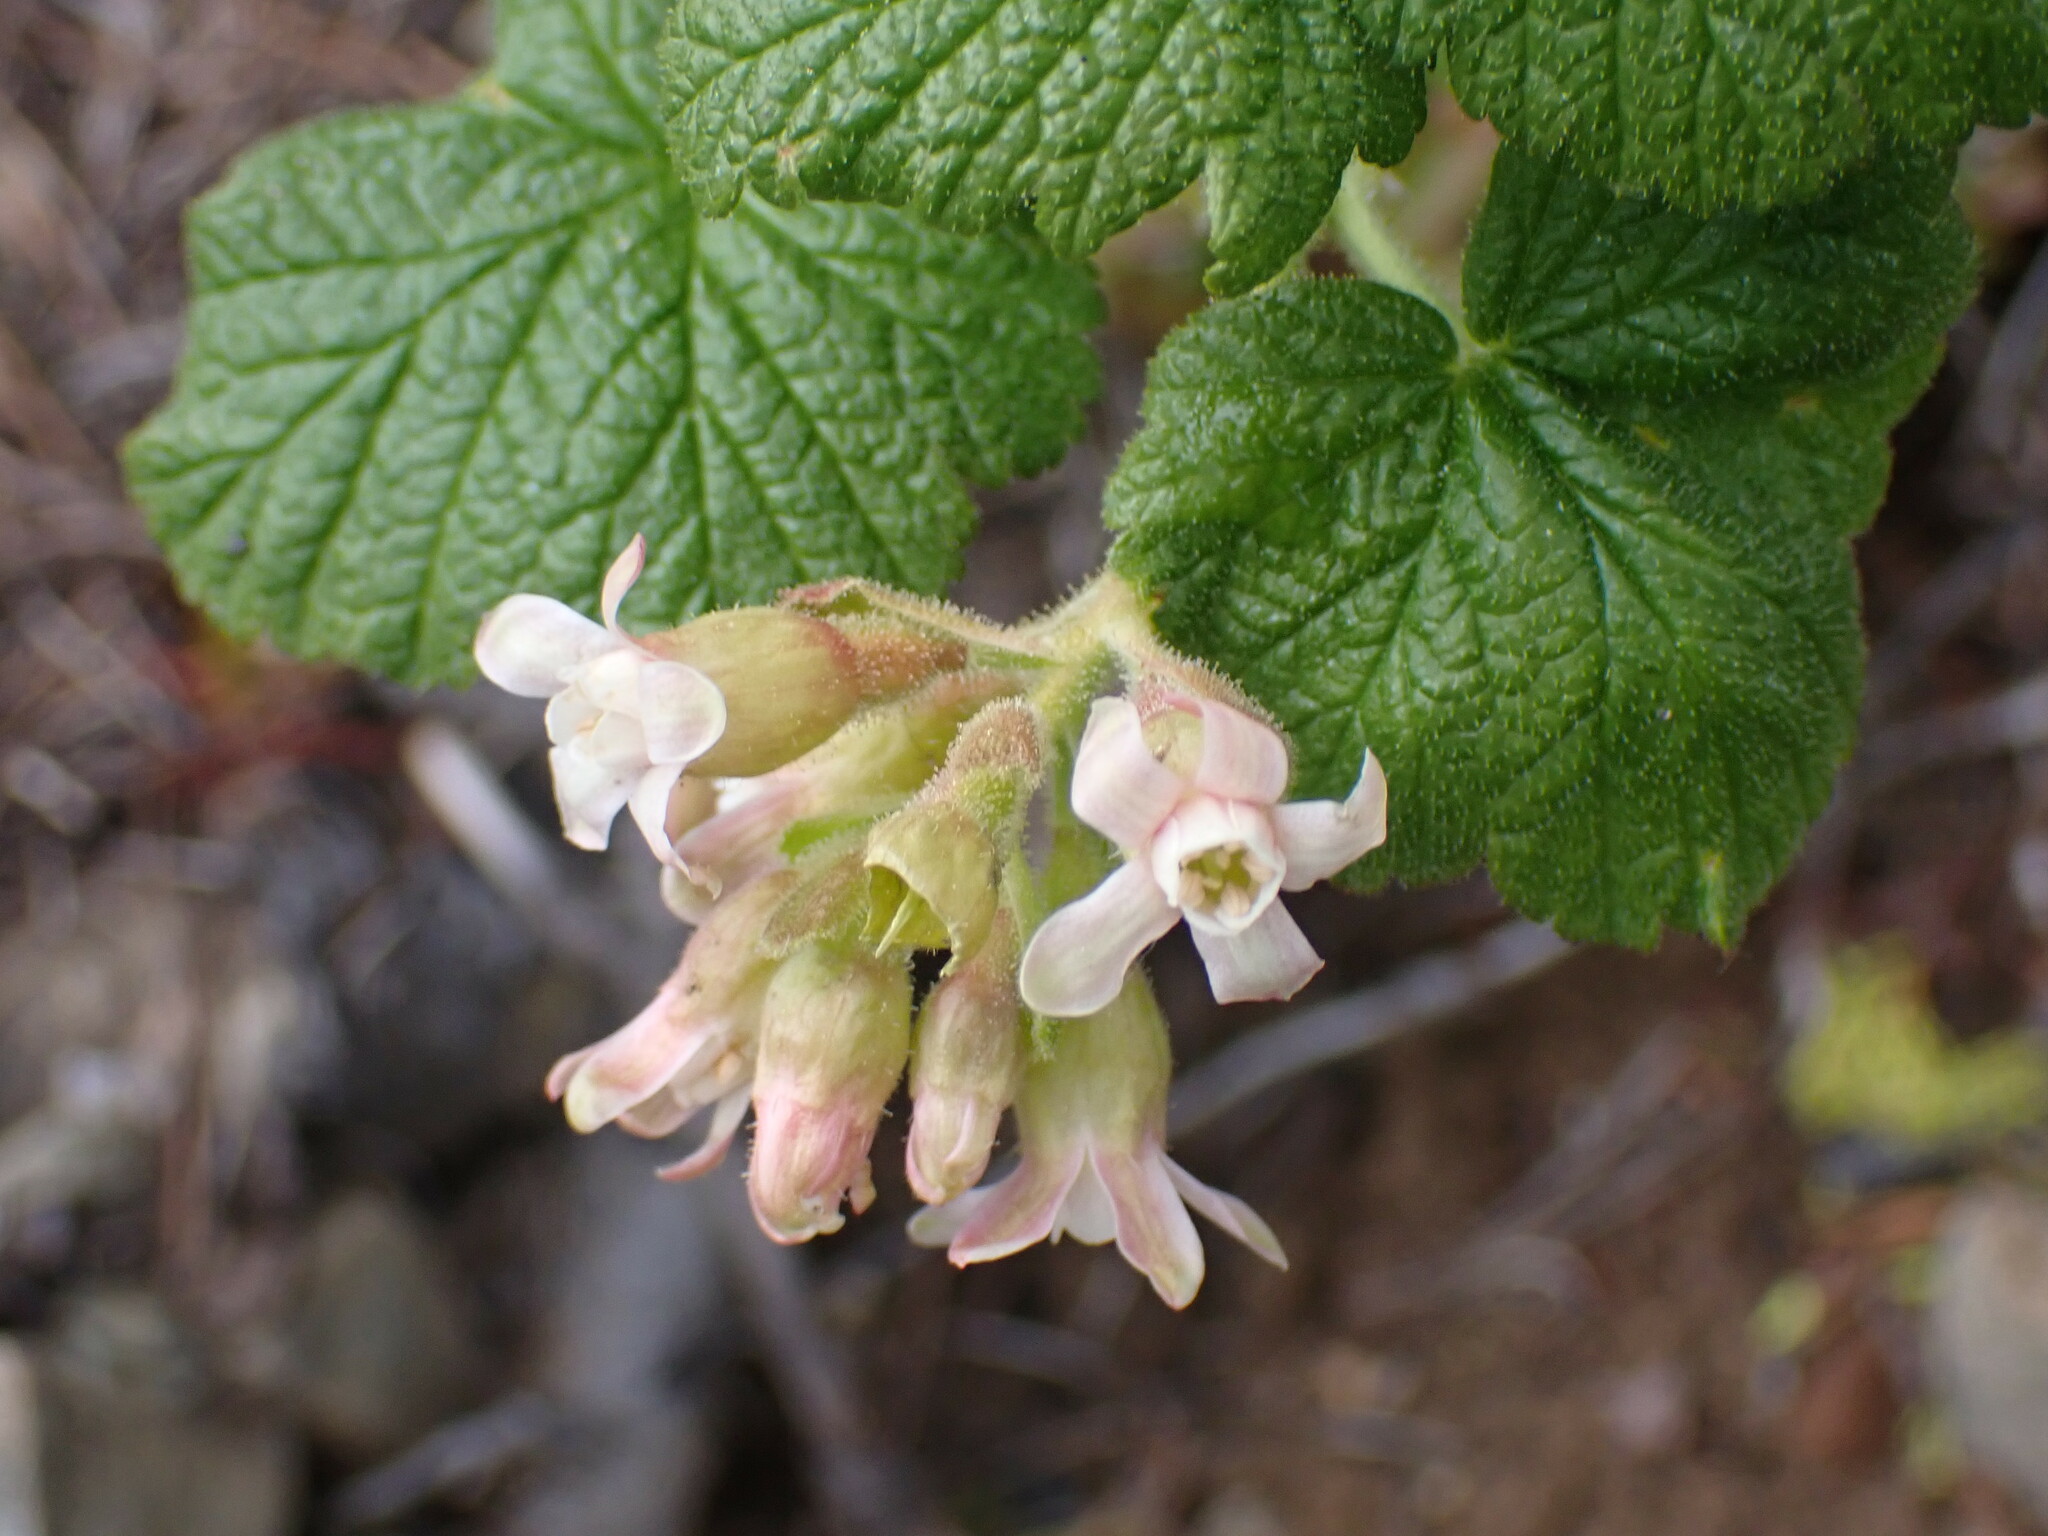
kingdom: Plantae
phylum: Tracheophyta
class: Magnoliopsida
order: Saxifragales
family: Grossulariaceae
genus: Ribes
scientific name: Ribes viscosissimum
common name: Sticky currant
